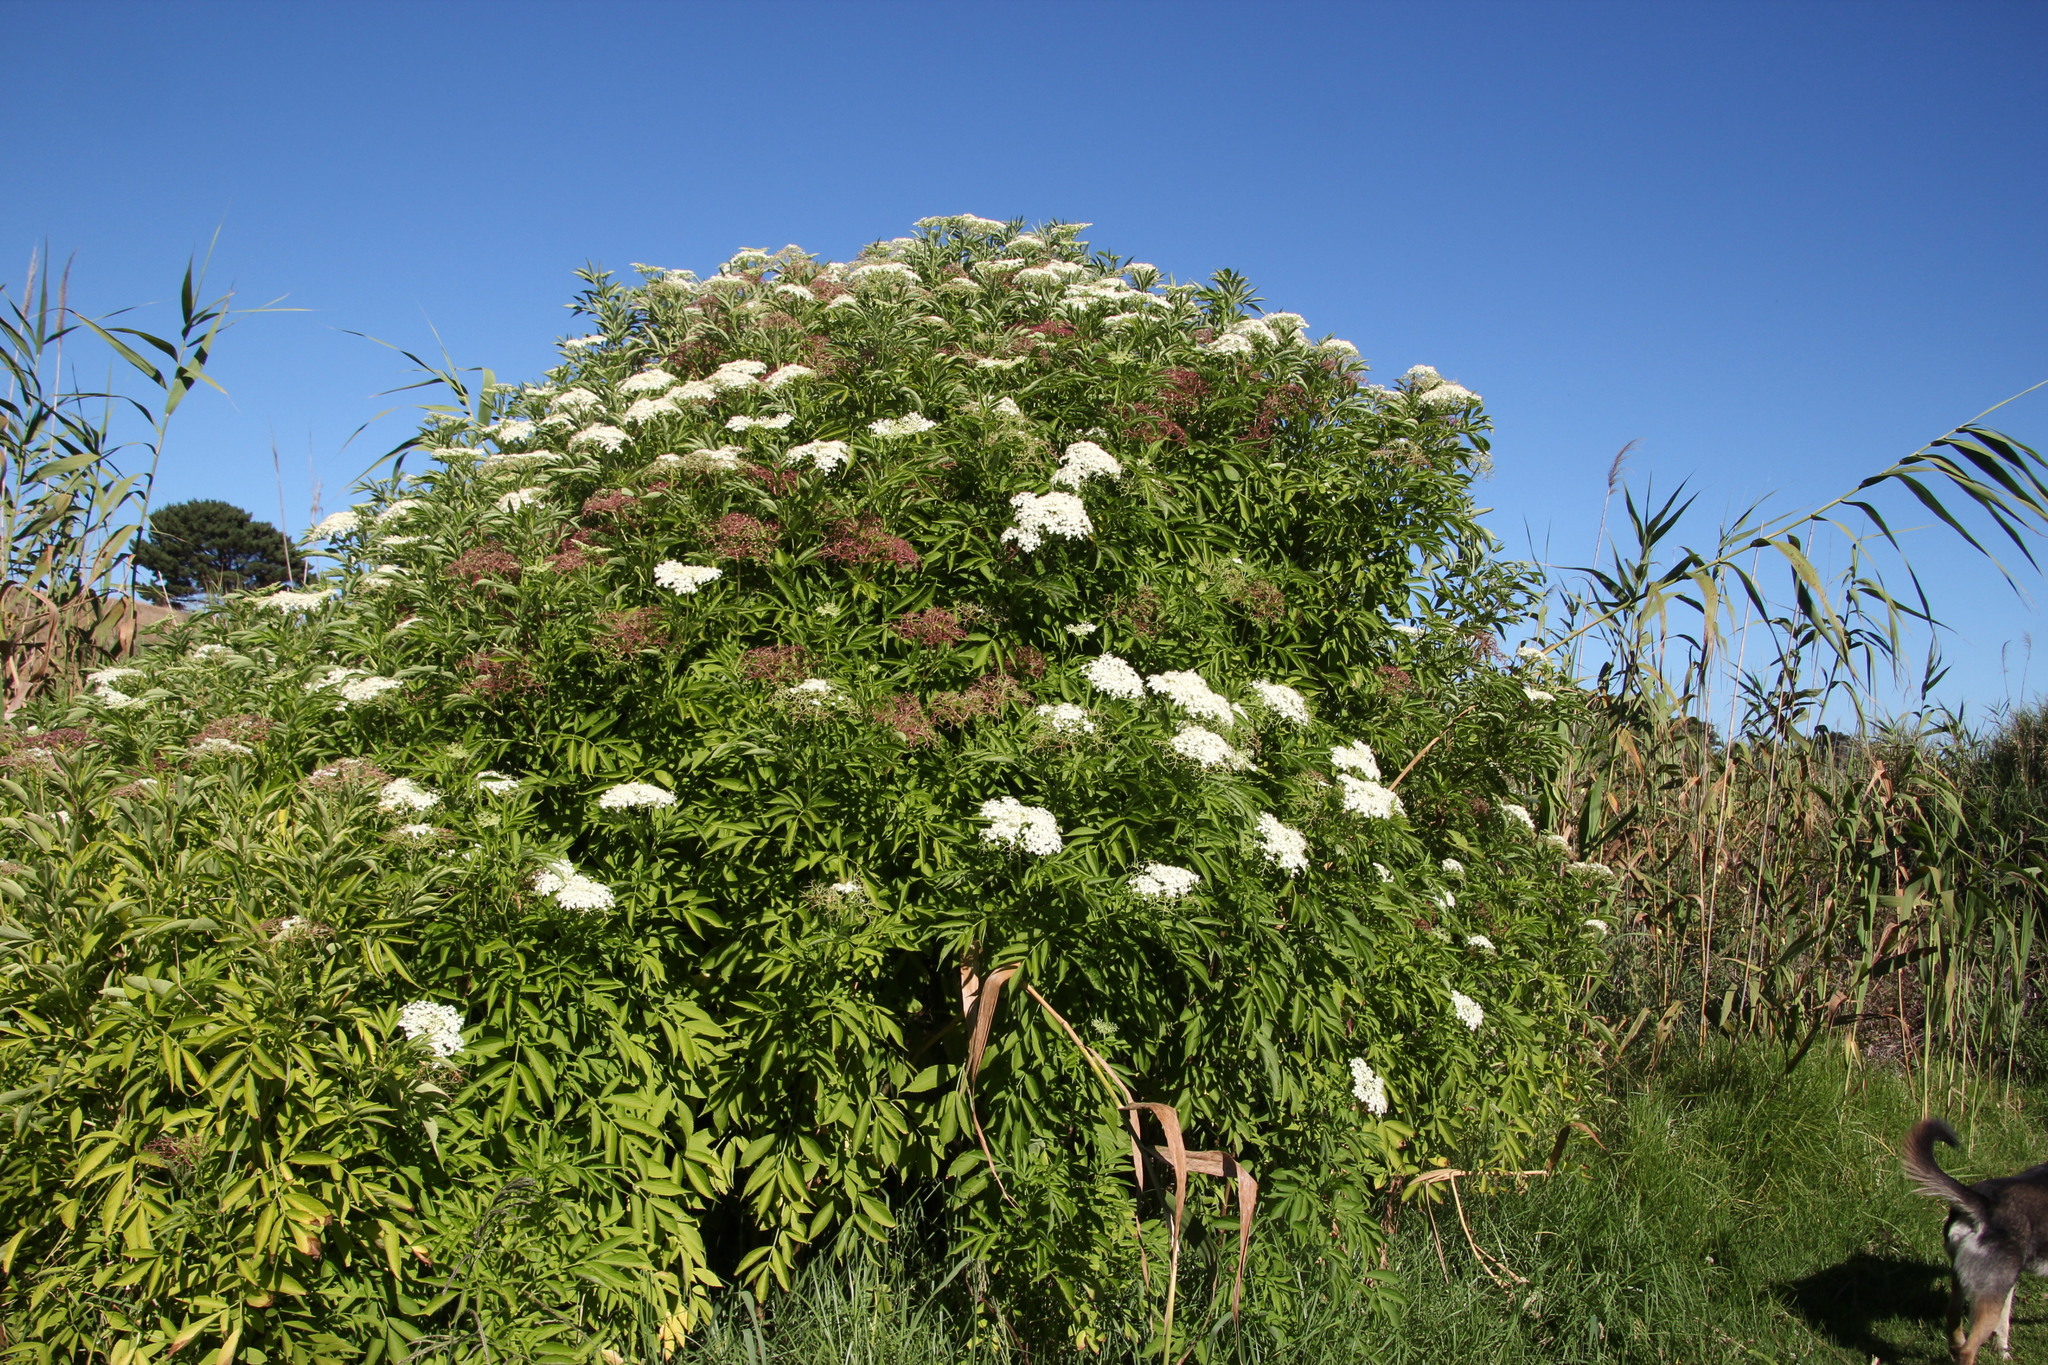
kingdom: Plantae
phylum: Tracheophyta
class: Magnoliopsida
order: Dipsacales
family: Viburnaceae
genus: Sambucus
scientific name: Sambucus canadensis
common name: American elder
